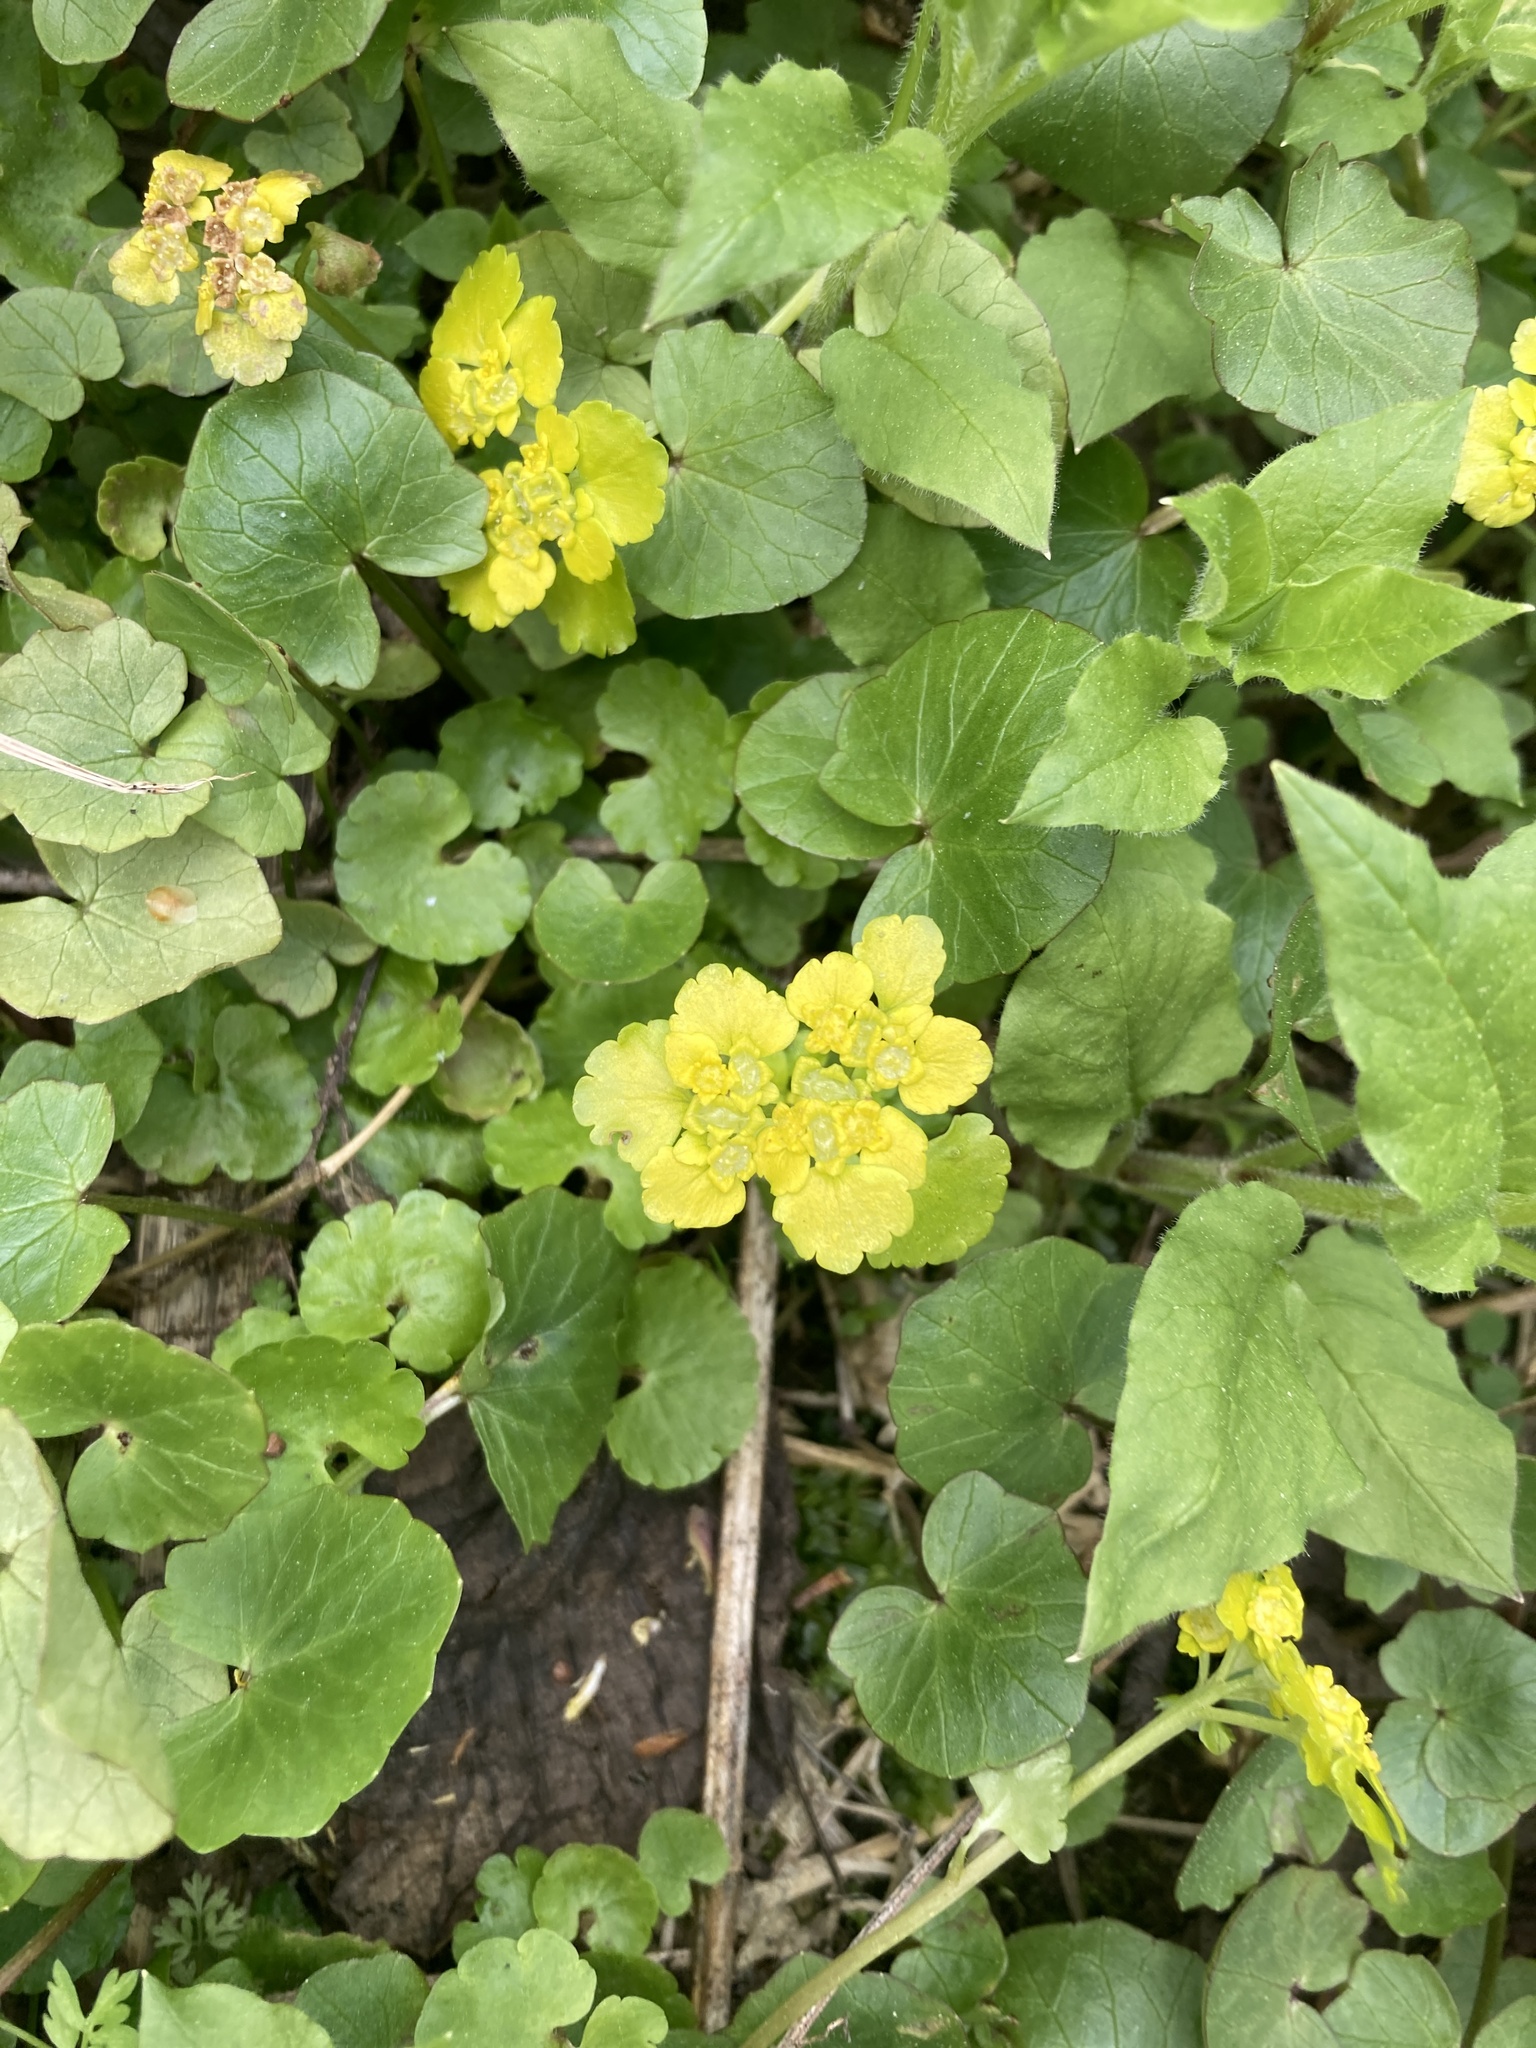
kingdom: Plantae
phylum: Tracheophyta
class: Magnoliopsida
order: Saxifragales
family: Saxifragaceae
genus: Chrysosplenium
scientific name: Chrysosplenium alternifolium
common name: Alternate-leaved golden-saxifrage
